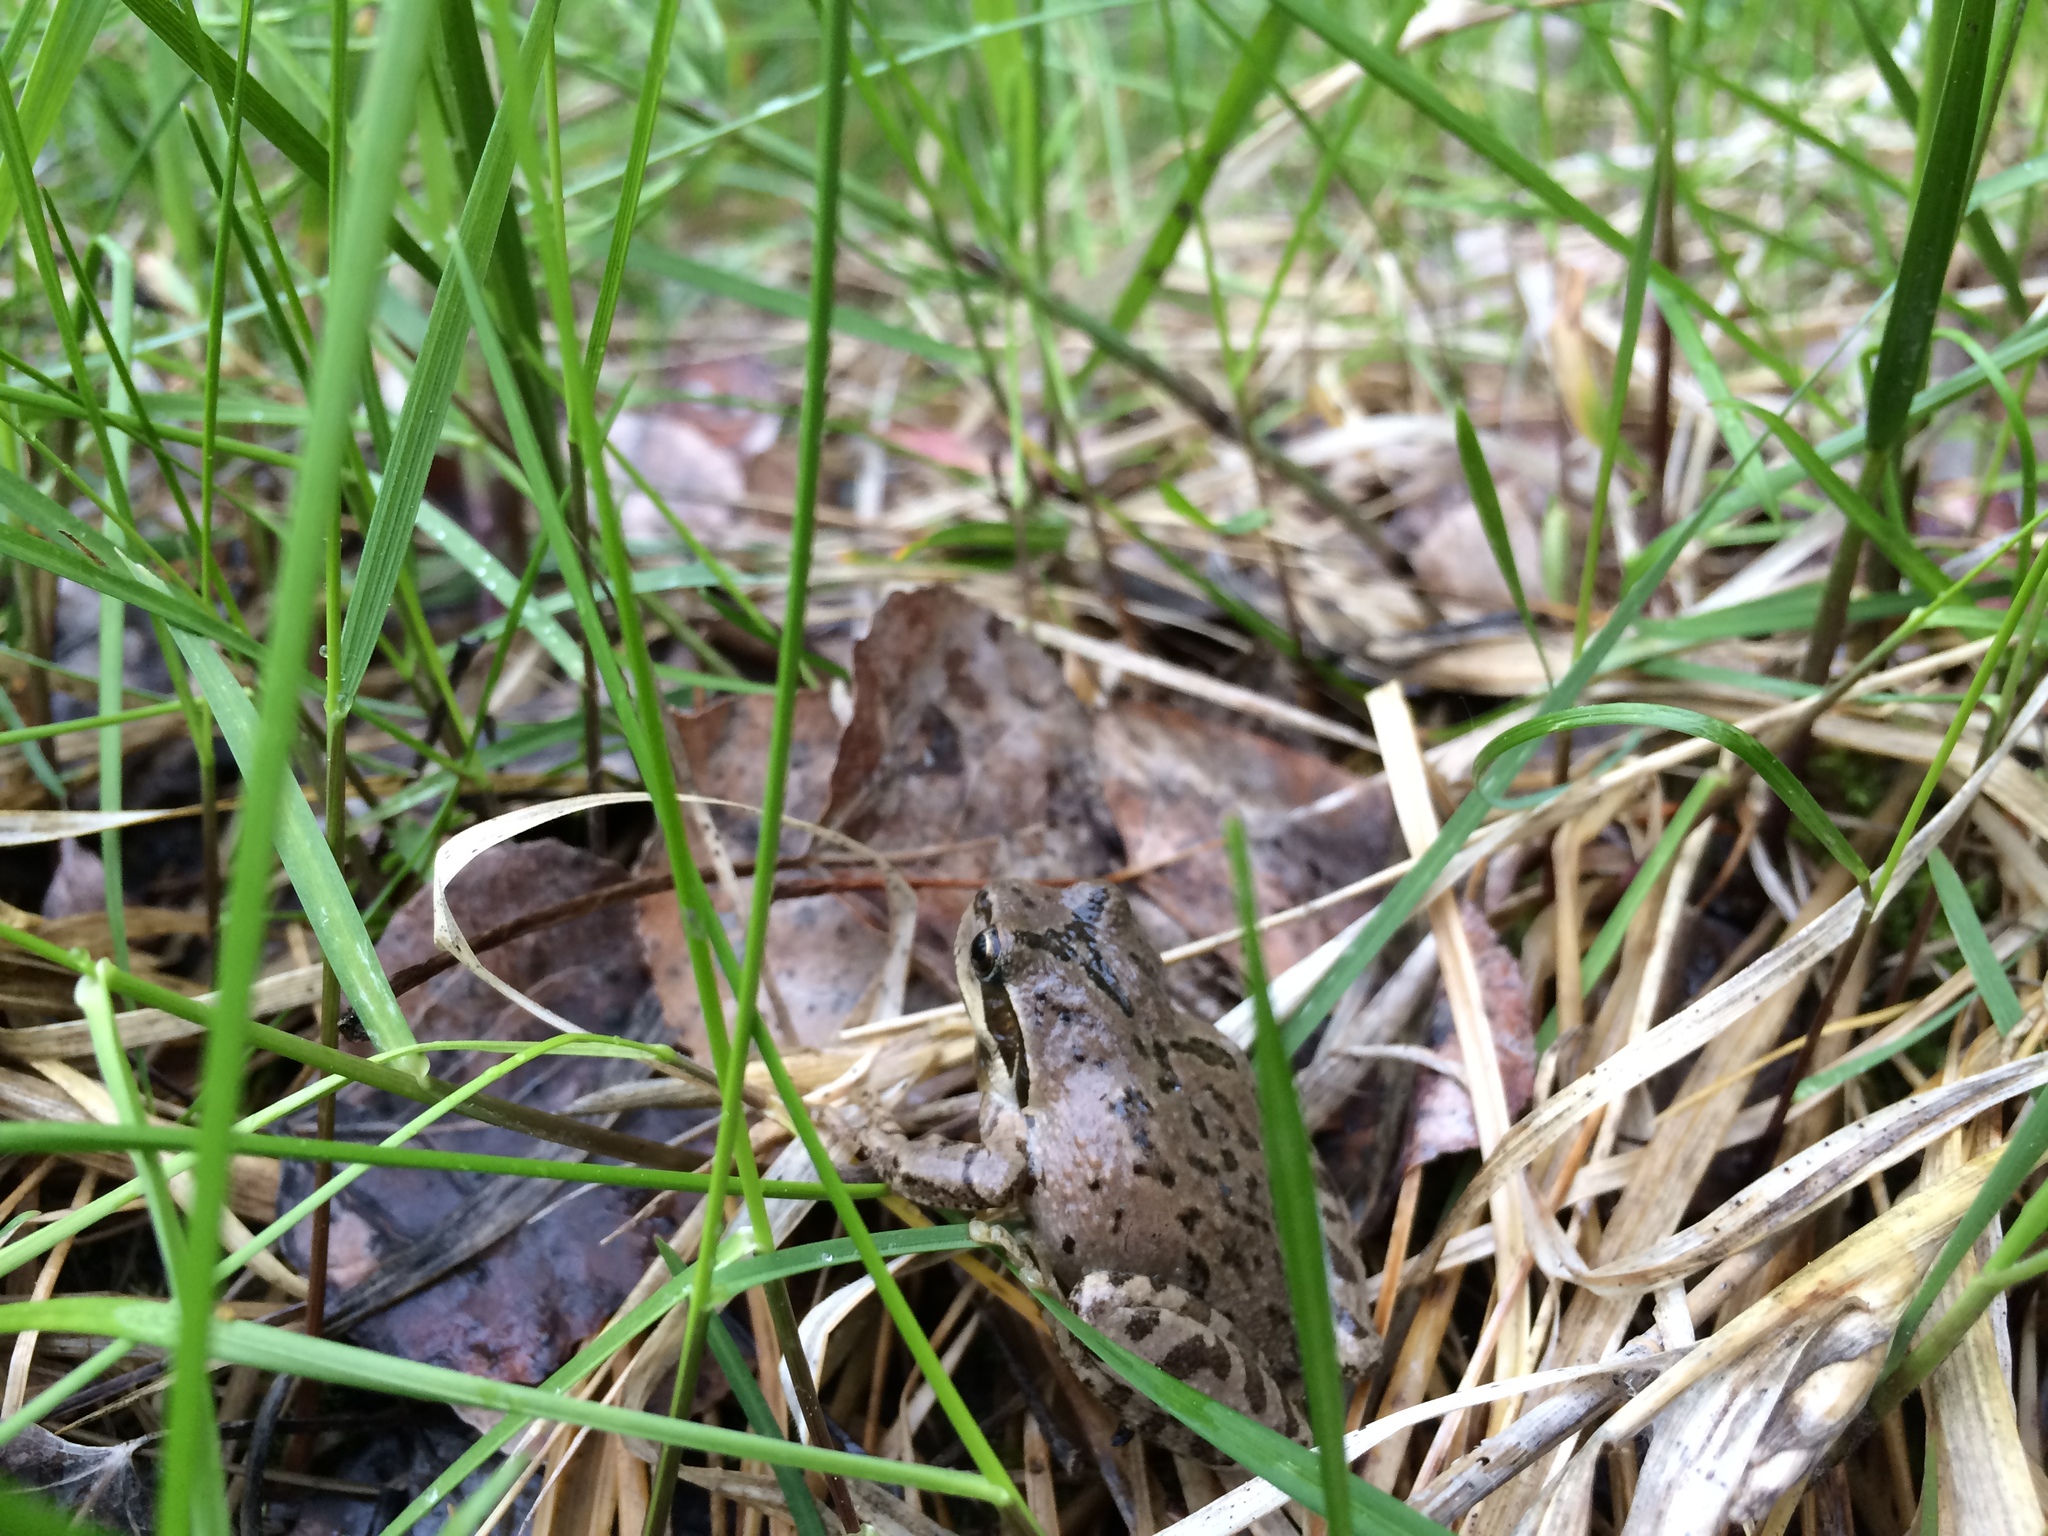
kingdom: Animalia
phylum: Chordata
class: Amphibia
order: Anura
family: Hylidae
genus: Pseudacris
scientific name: Pseudacris
